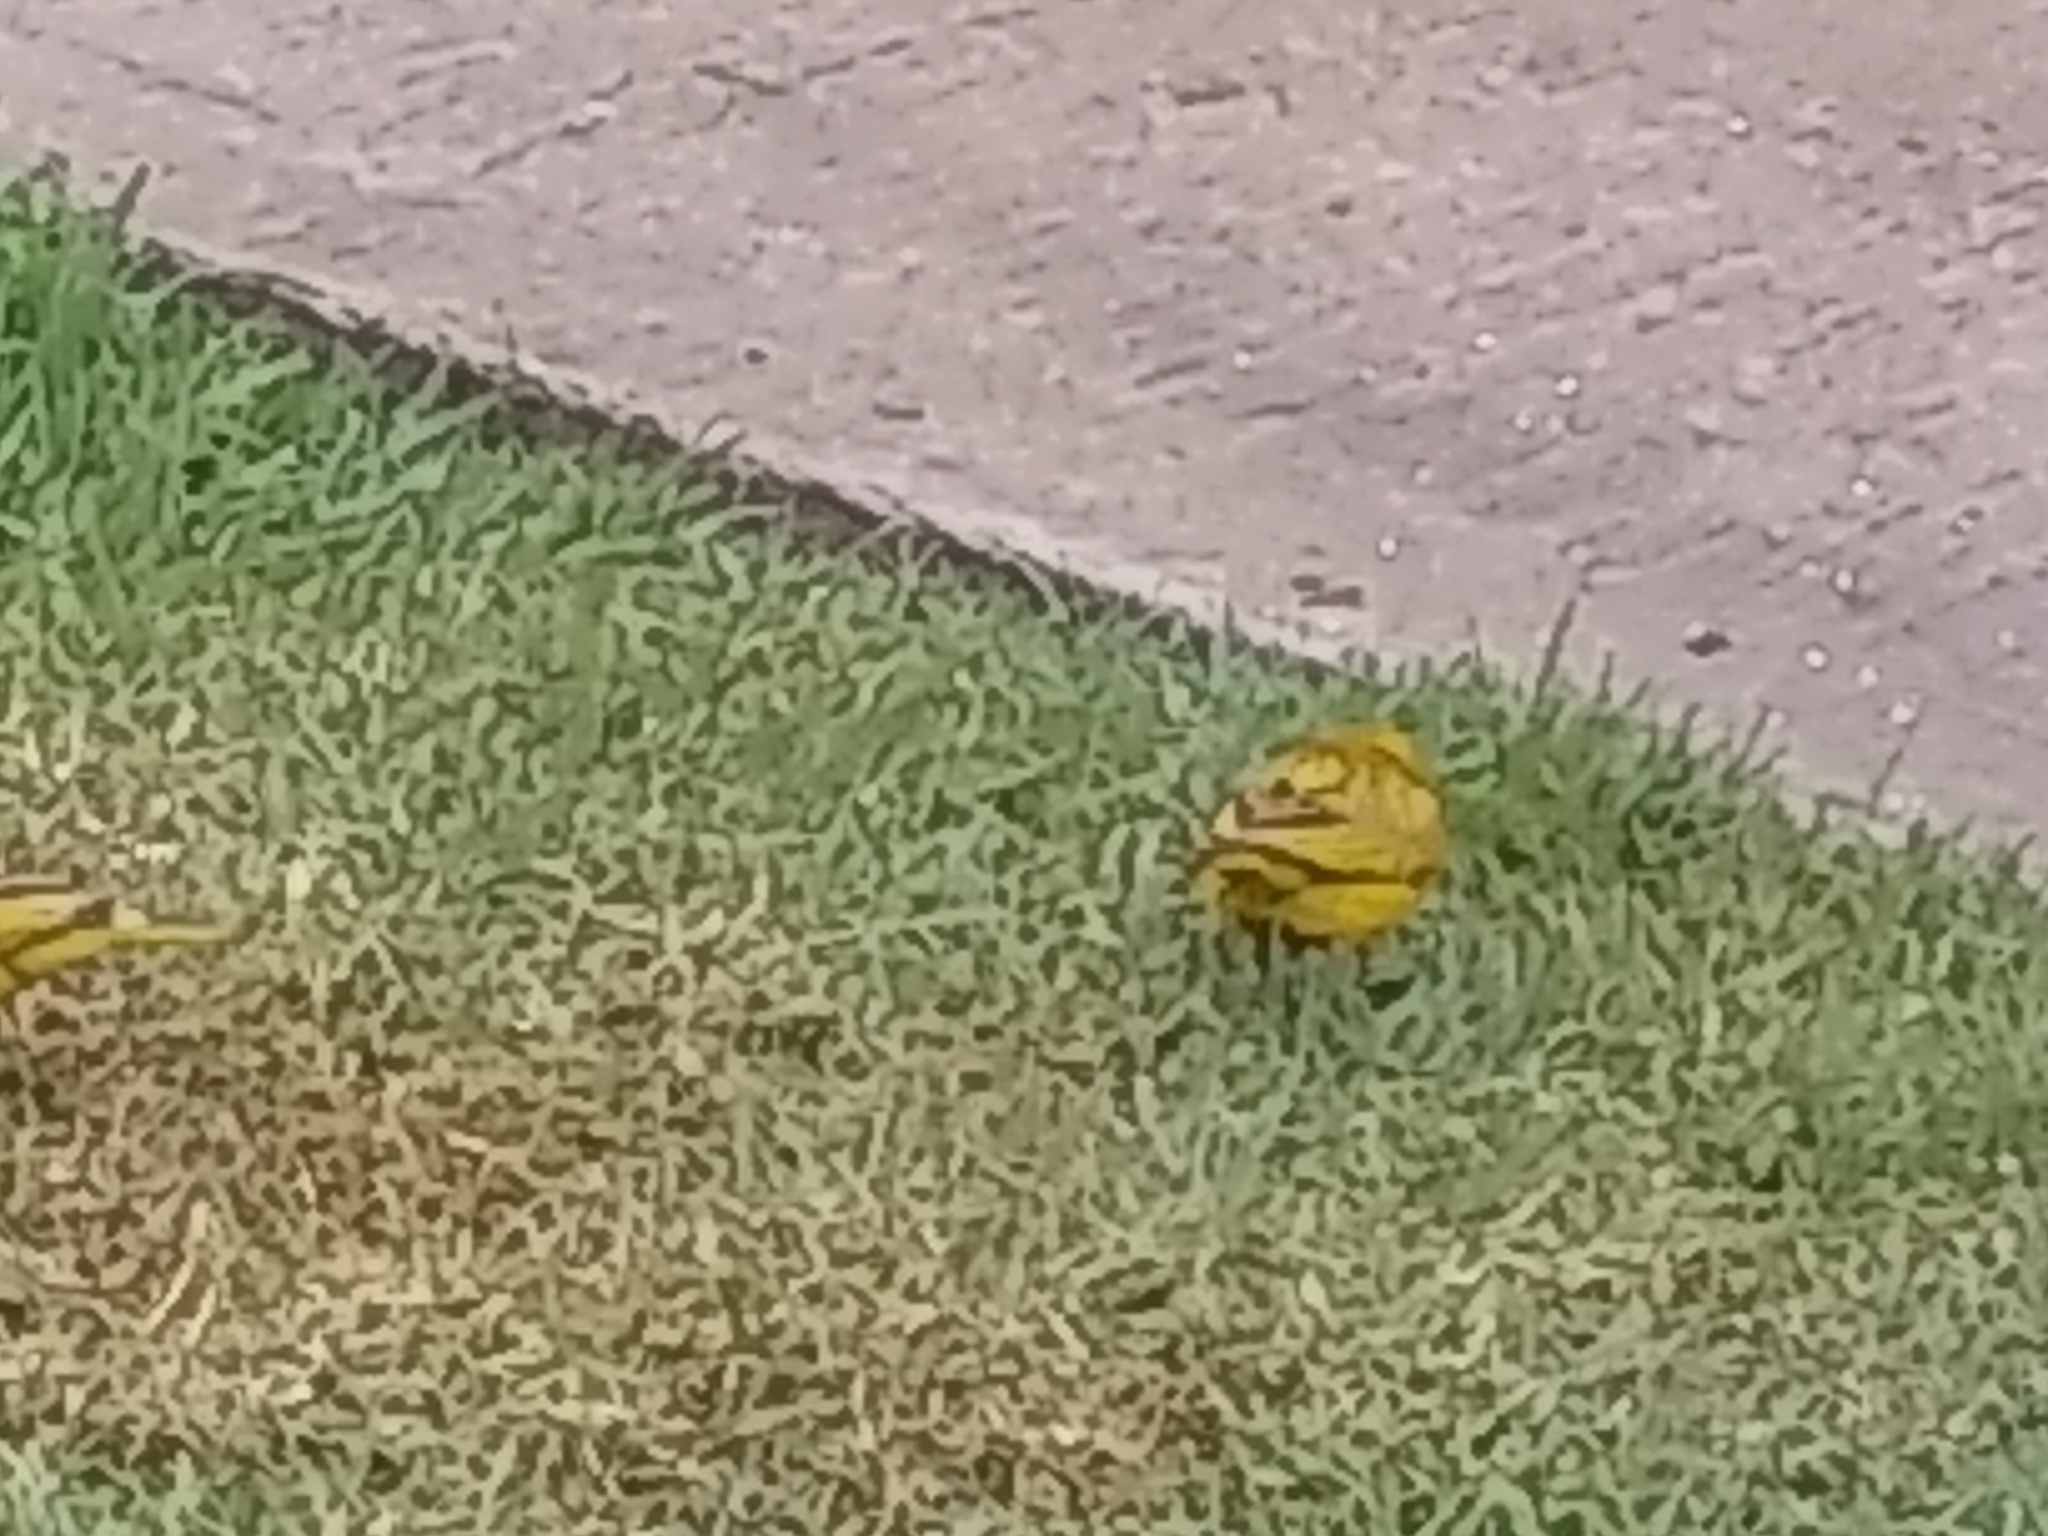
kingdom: Animalia
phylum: Chordata
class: Aves
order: Passeriformes
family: Thraupidae
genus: Sicalis
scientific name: Sicalis flaveola
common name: Saffron finch
